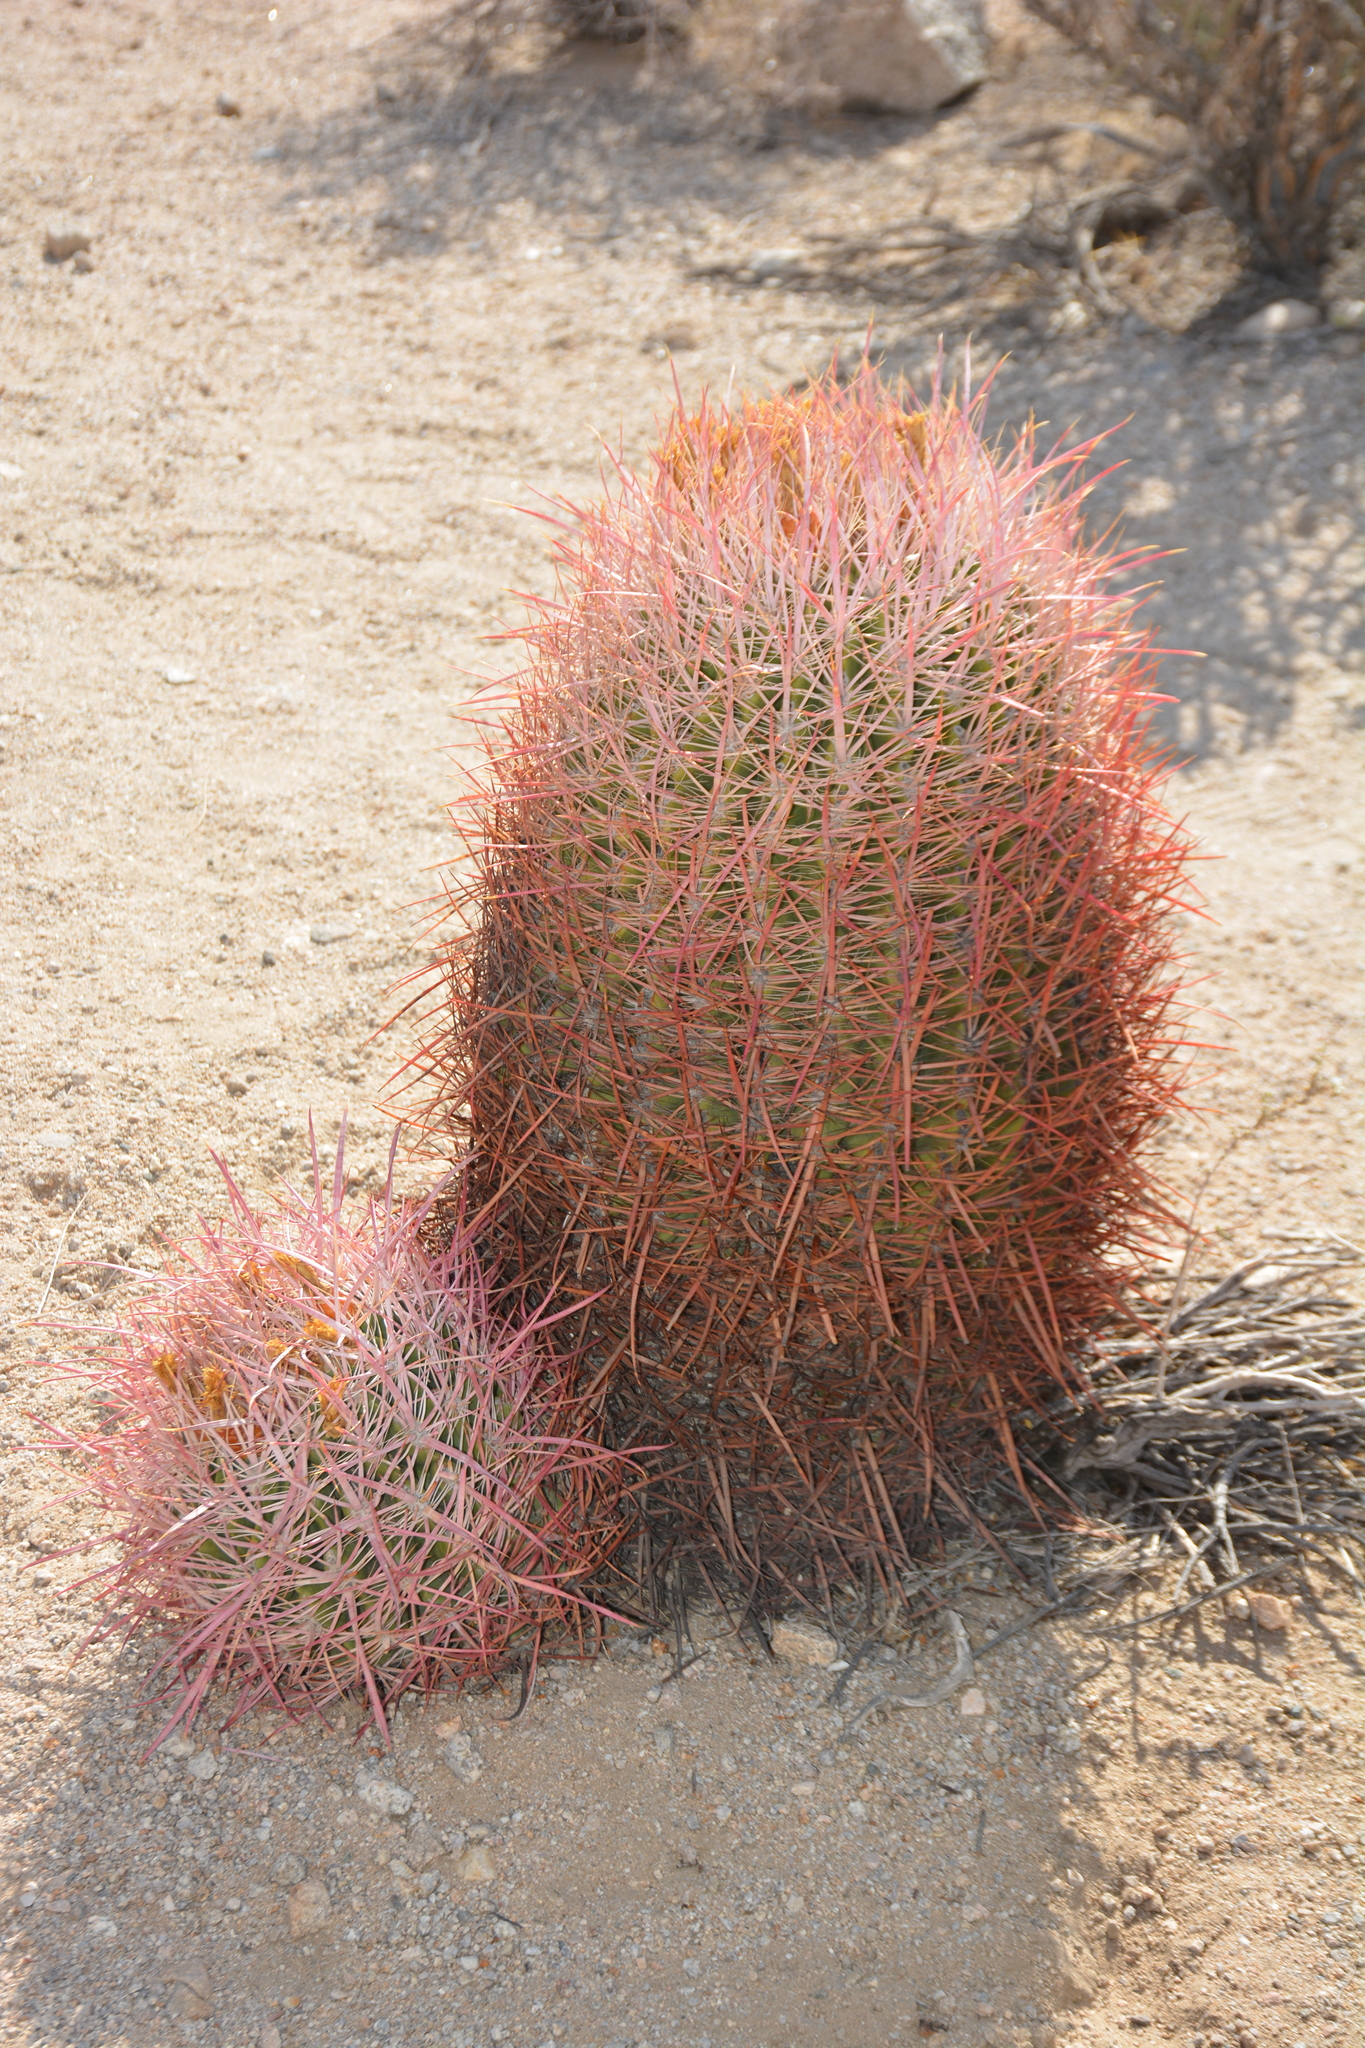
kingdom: Plantae
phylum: Tracheophyta
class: Magnoliopsida
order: Caryophyllales
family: Cactaceae
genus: Ferocactus
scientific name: Ferocactus cylindraceus
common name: California barrel cactus
